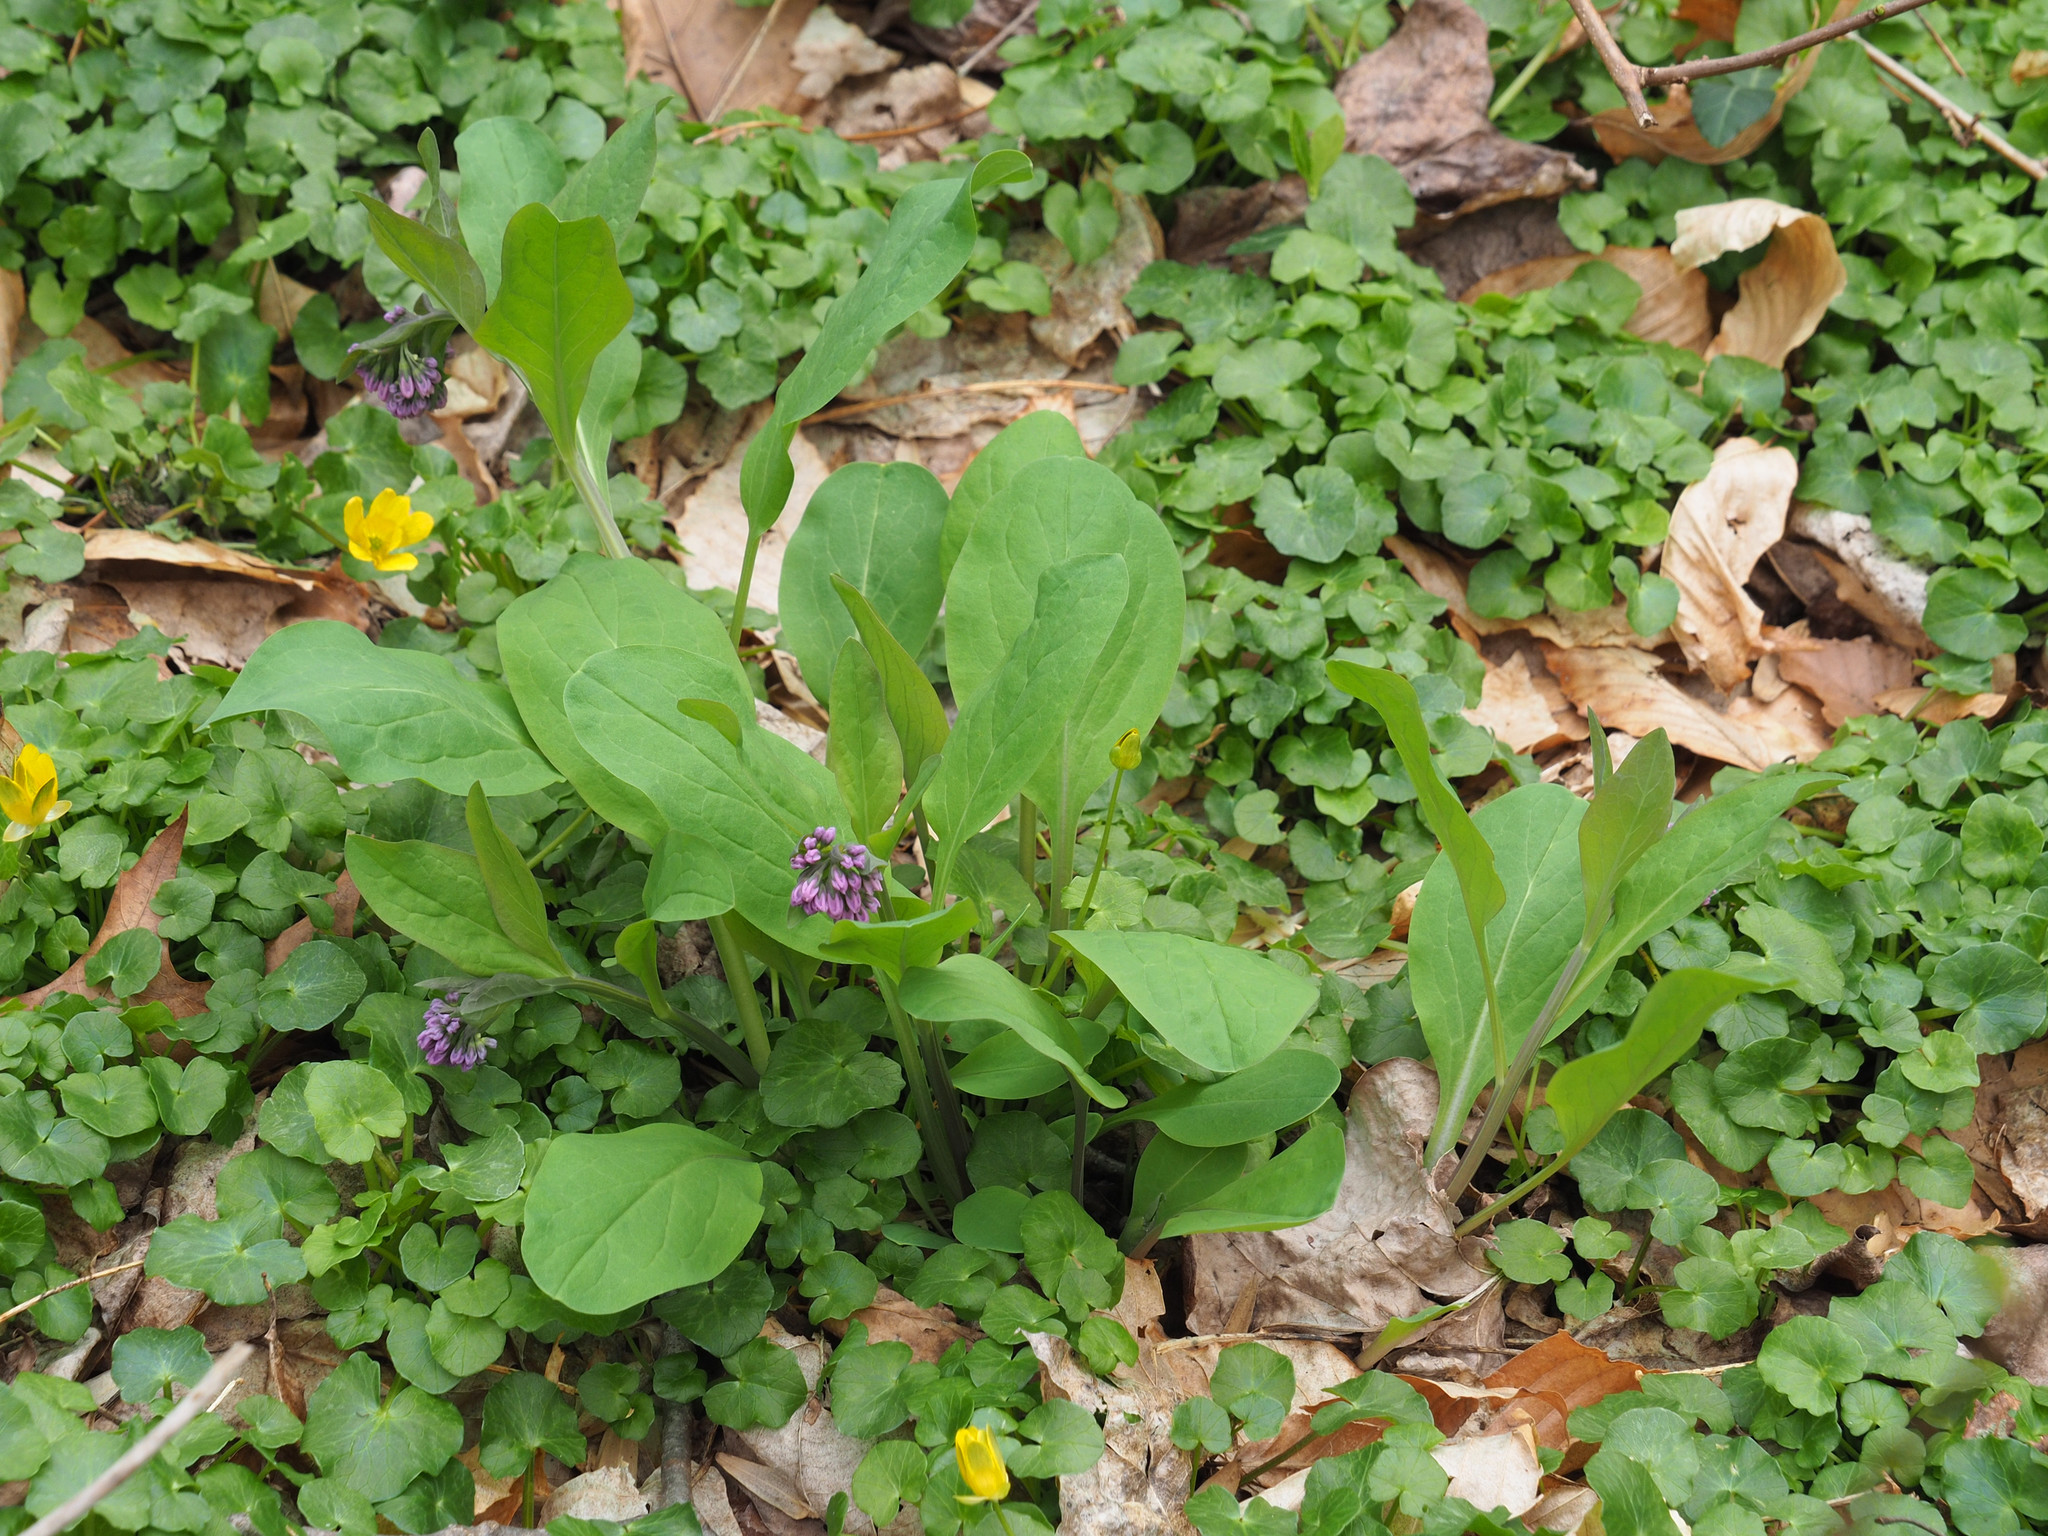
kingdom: Plantae
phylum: Tracheophyta
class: Magnoliopsida
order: Boraginales
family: Boraginaceae
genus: Mertensia
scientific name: Mertensia virginica
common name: Virginia bluebells
